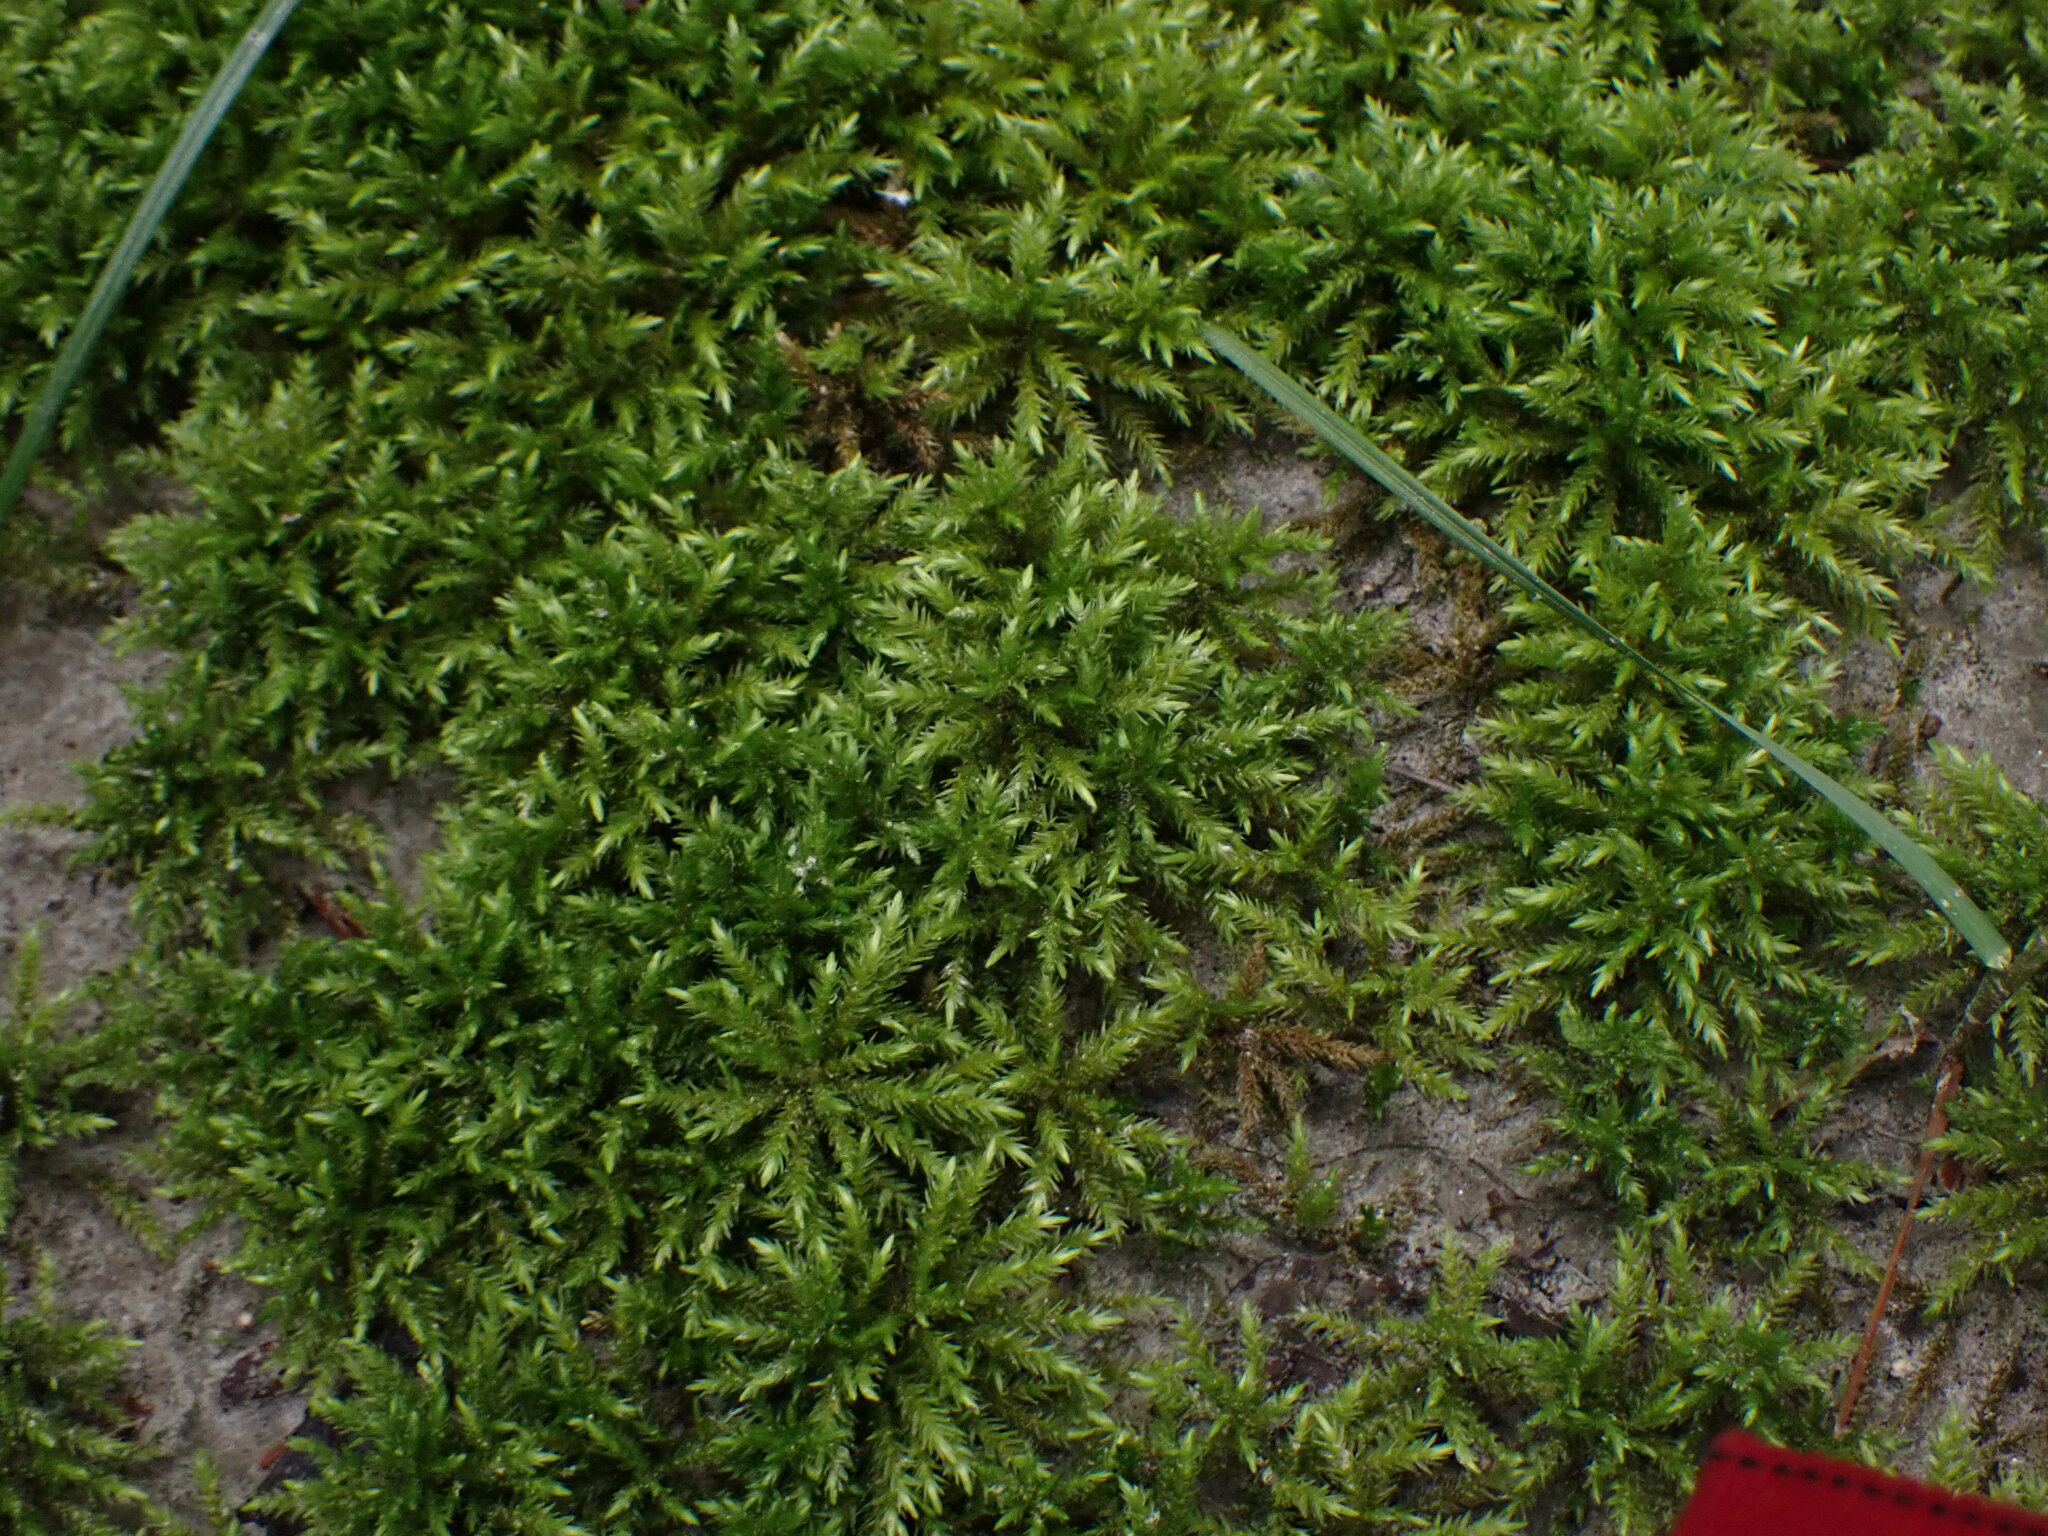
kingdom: Plantae
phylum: Bryophyta
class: Bryopsida
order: Hypnales
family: Climaciaceae
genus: Climacium
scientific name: Climacium dendroides
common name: Northern tree moss
